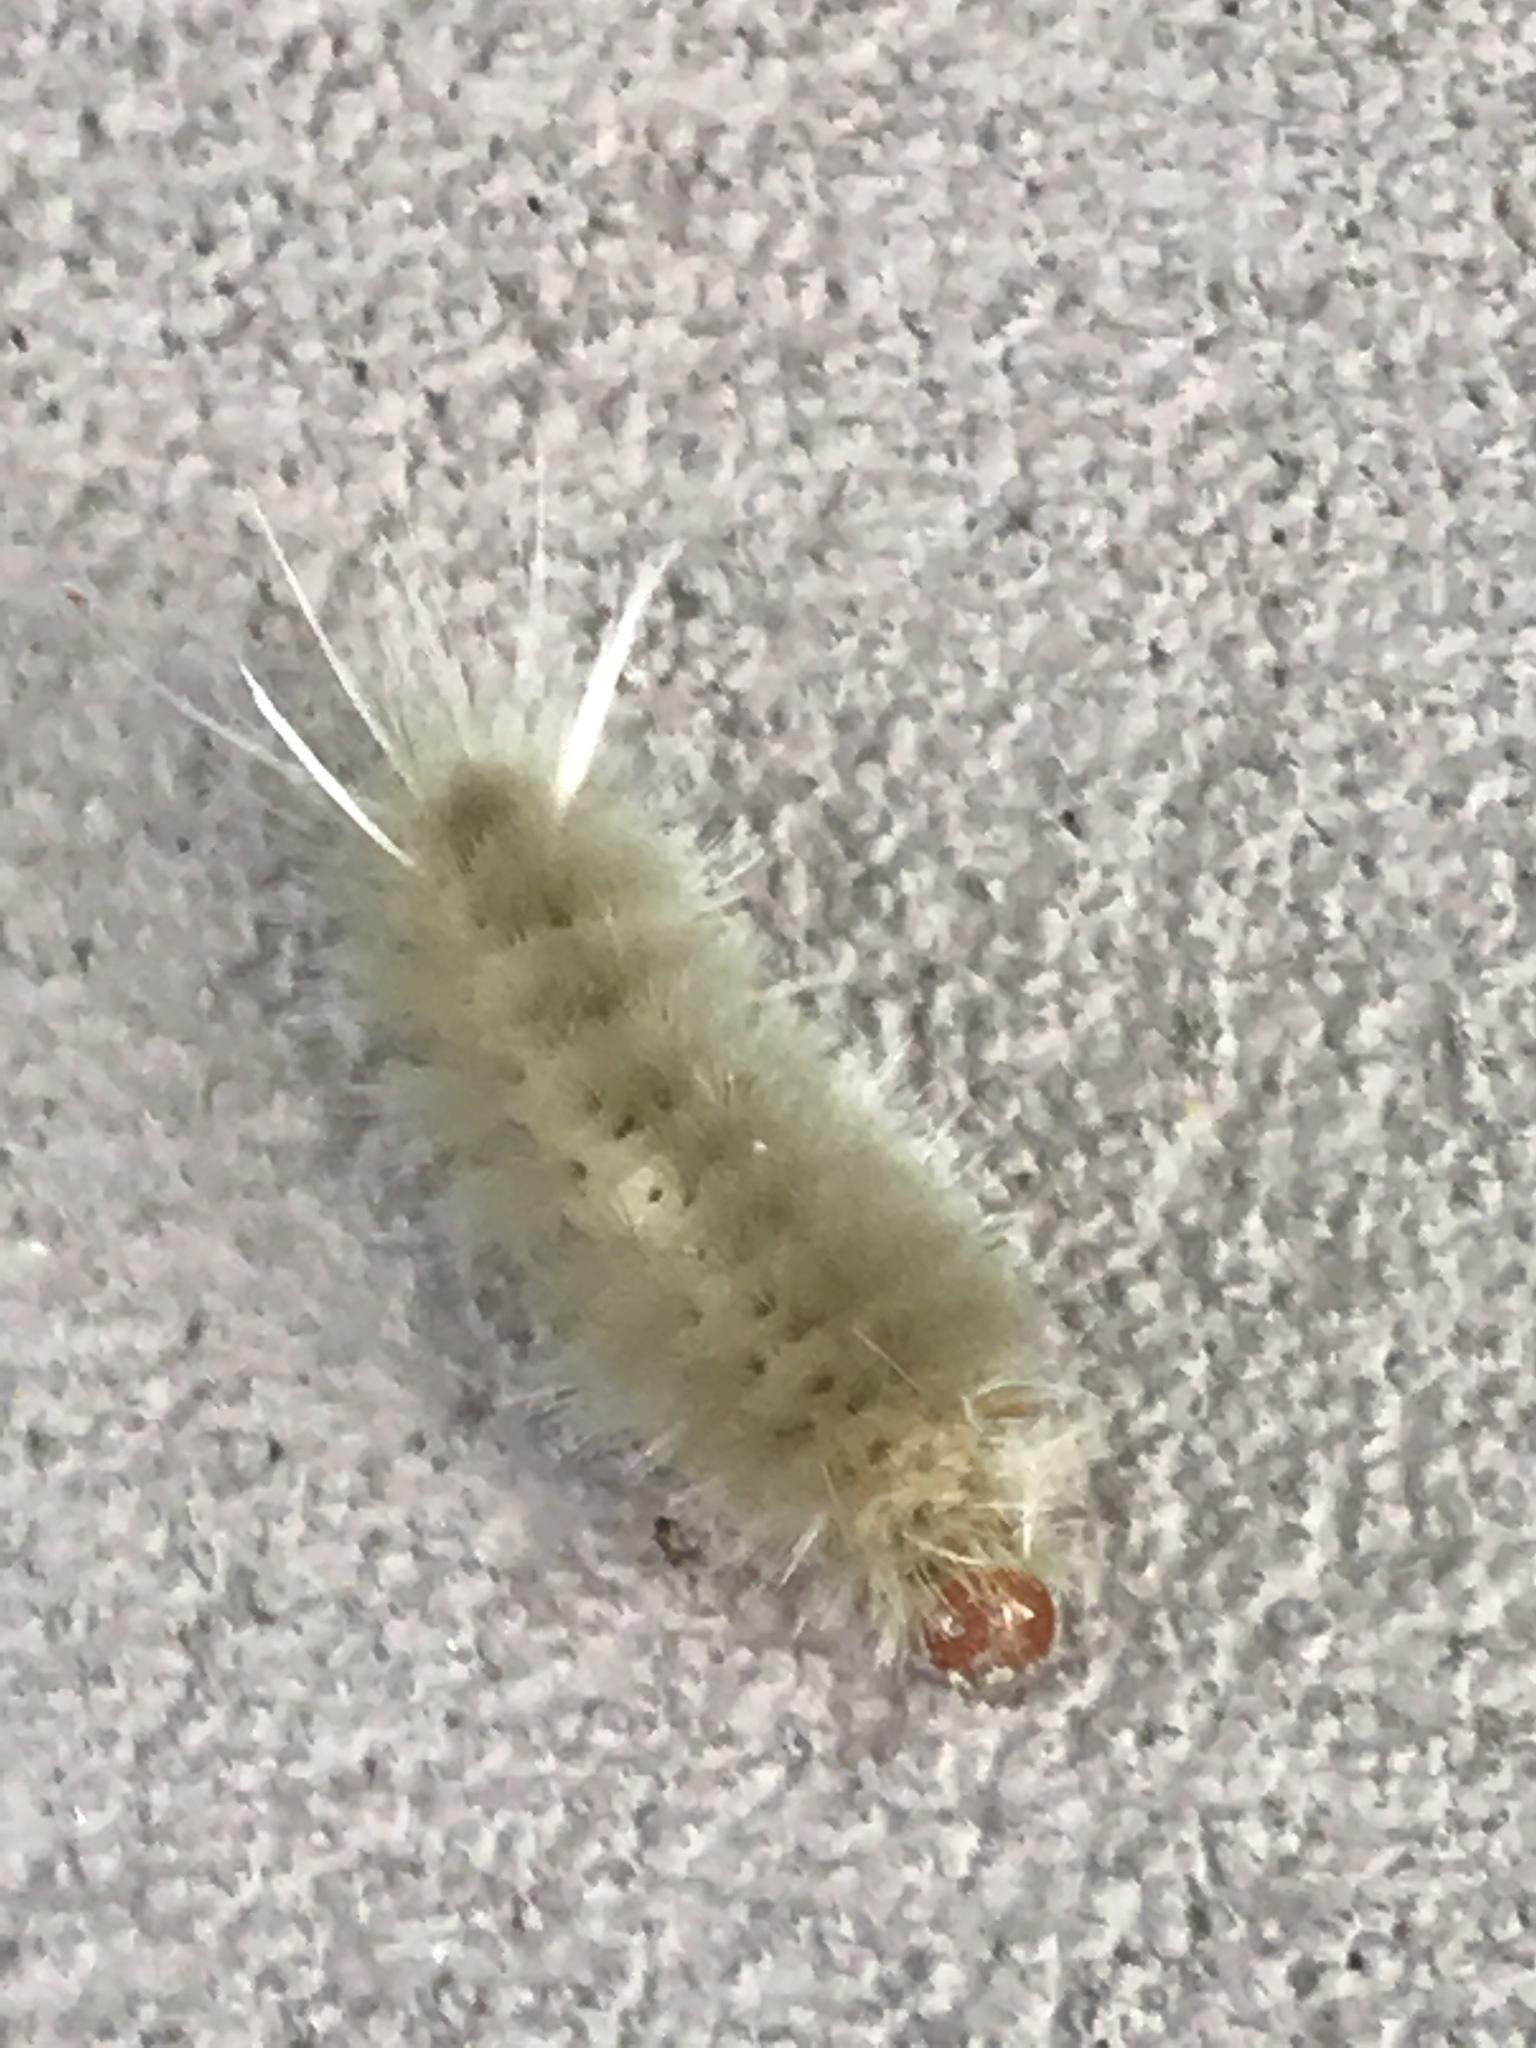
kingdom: Animalia
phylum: Arthropoda
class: Insecta
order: Lepidoptera
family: Erebidae
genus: Halysidota
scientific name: Halysidota harrisii
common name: Sycamore tussock moth
